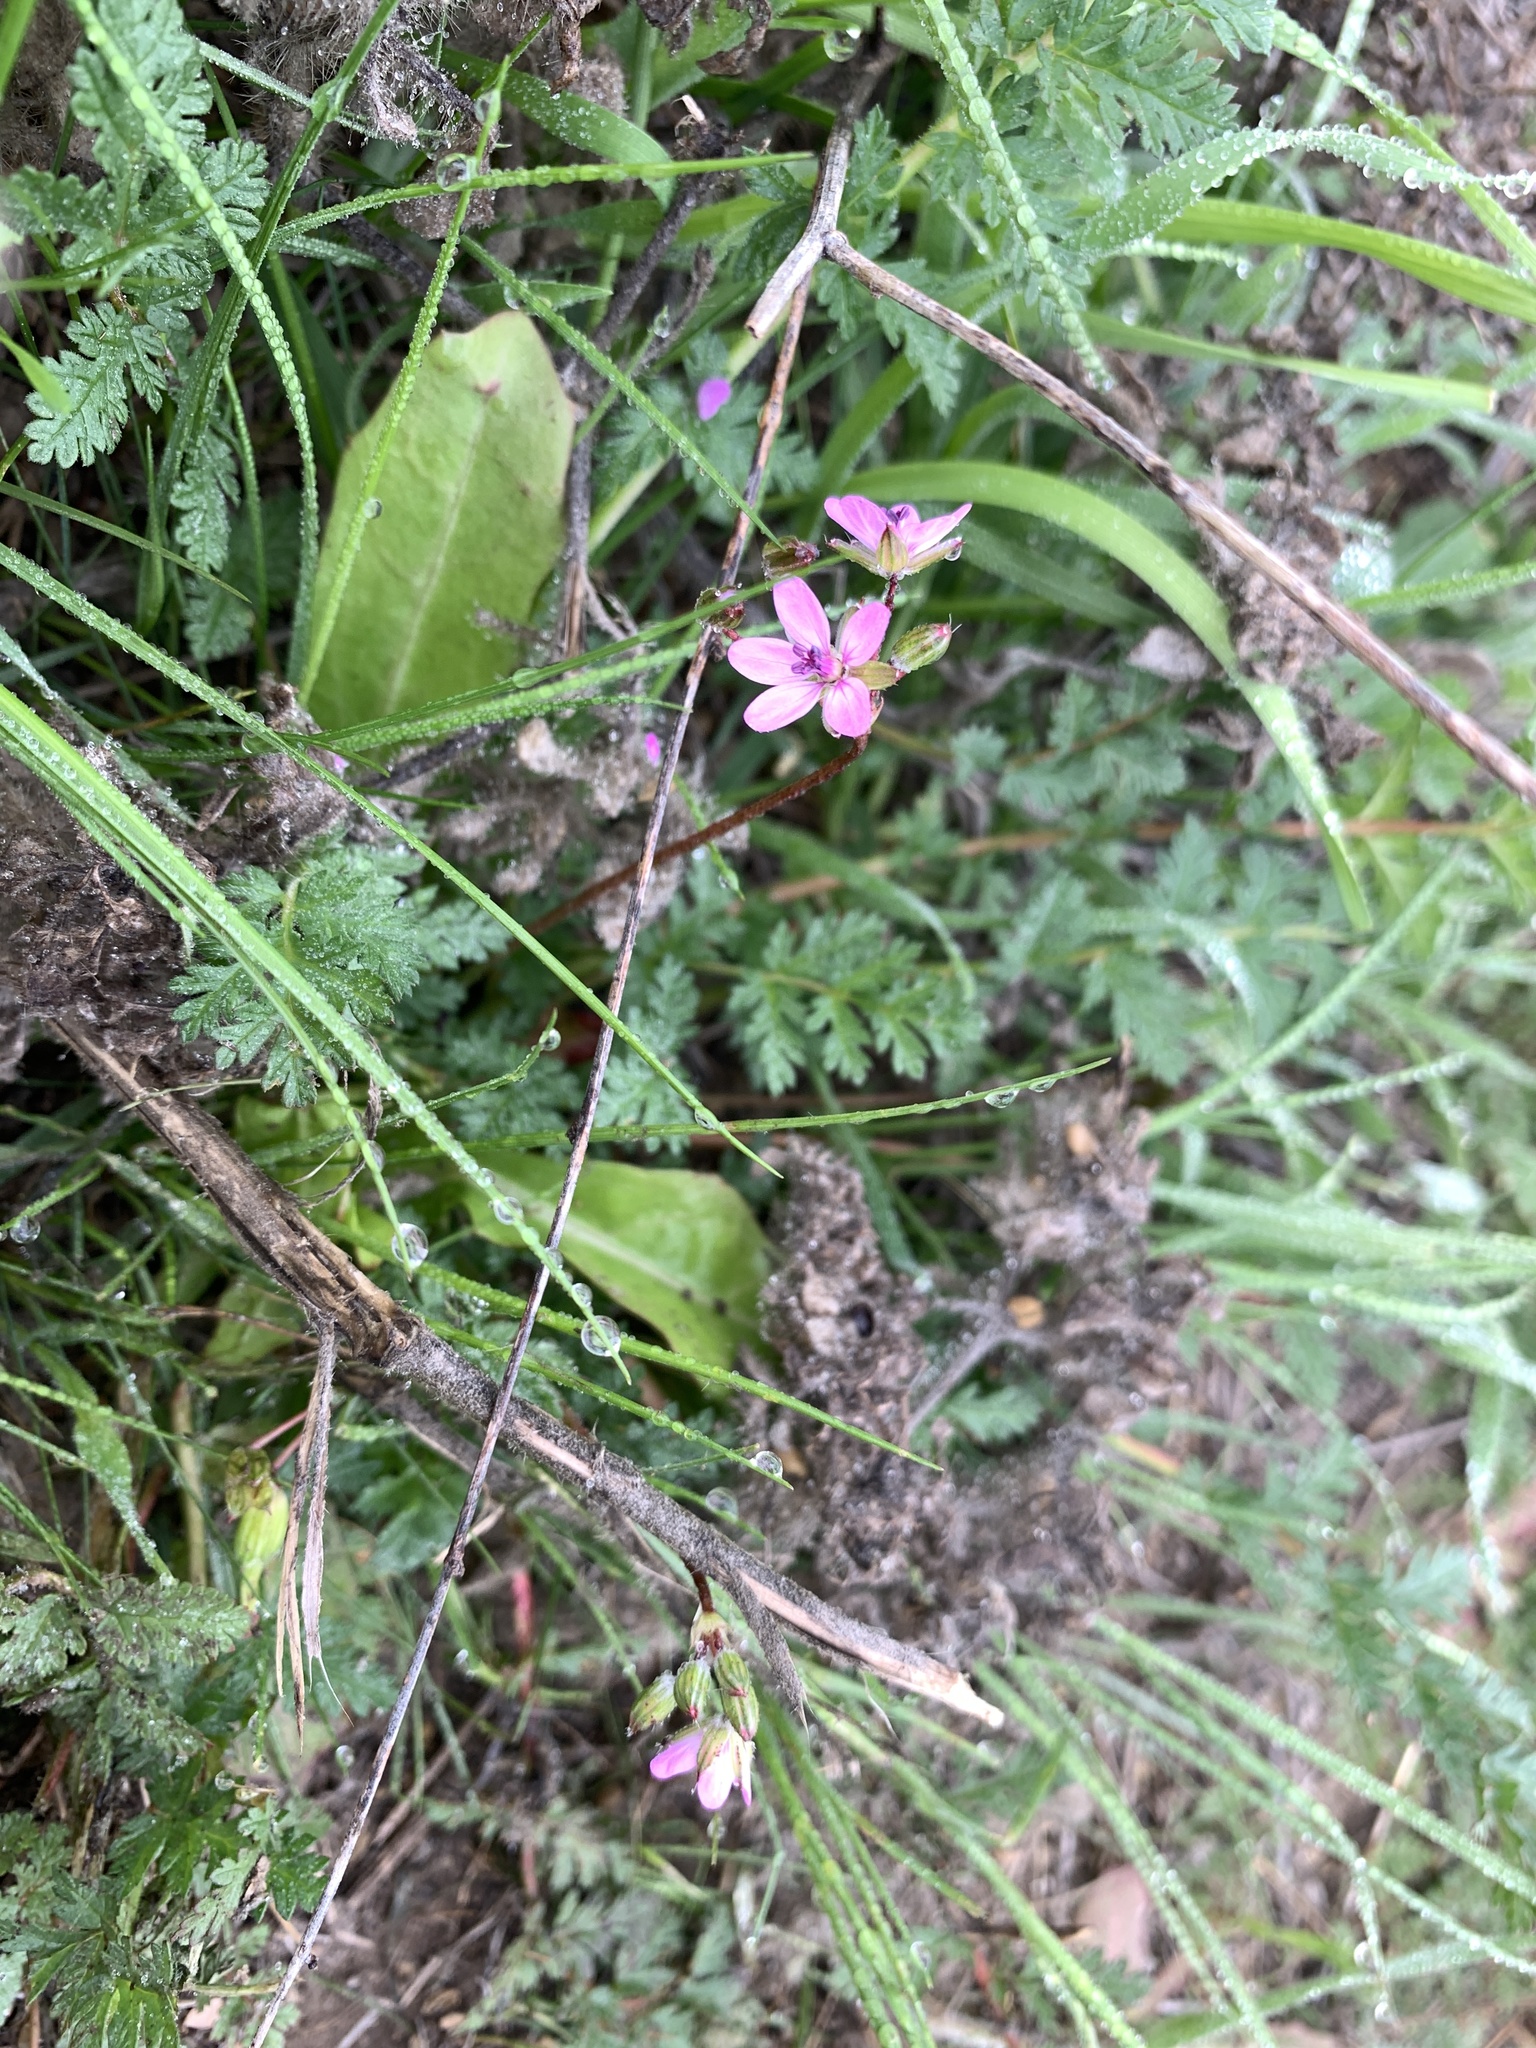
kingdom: Plantae
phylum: Tracheophyta
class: Magnoliopsida
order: Geraniales
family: Geraniaceae
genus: Erodium
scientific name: Erodium cicutarium
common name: Common stork's-bill
